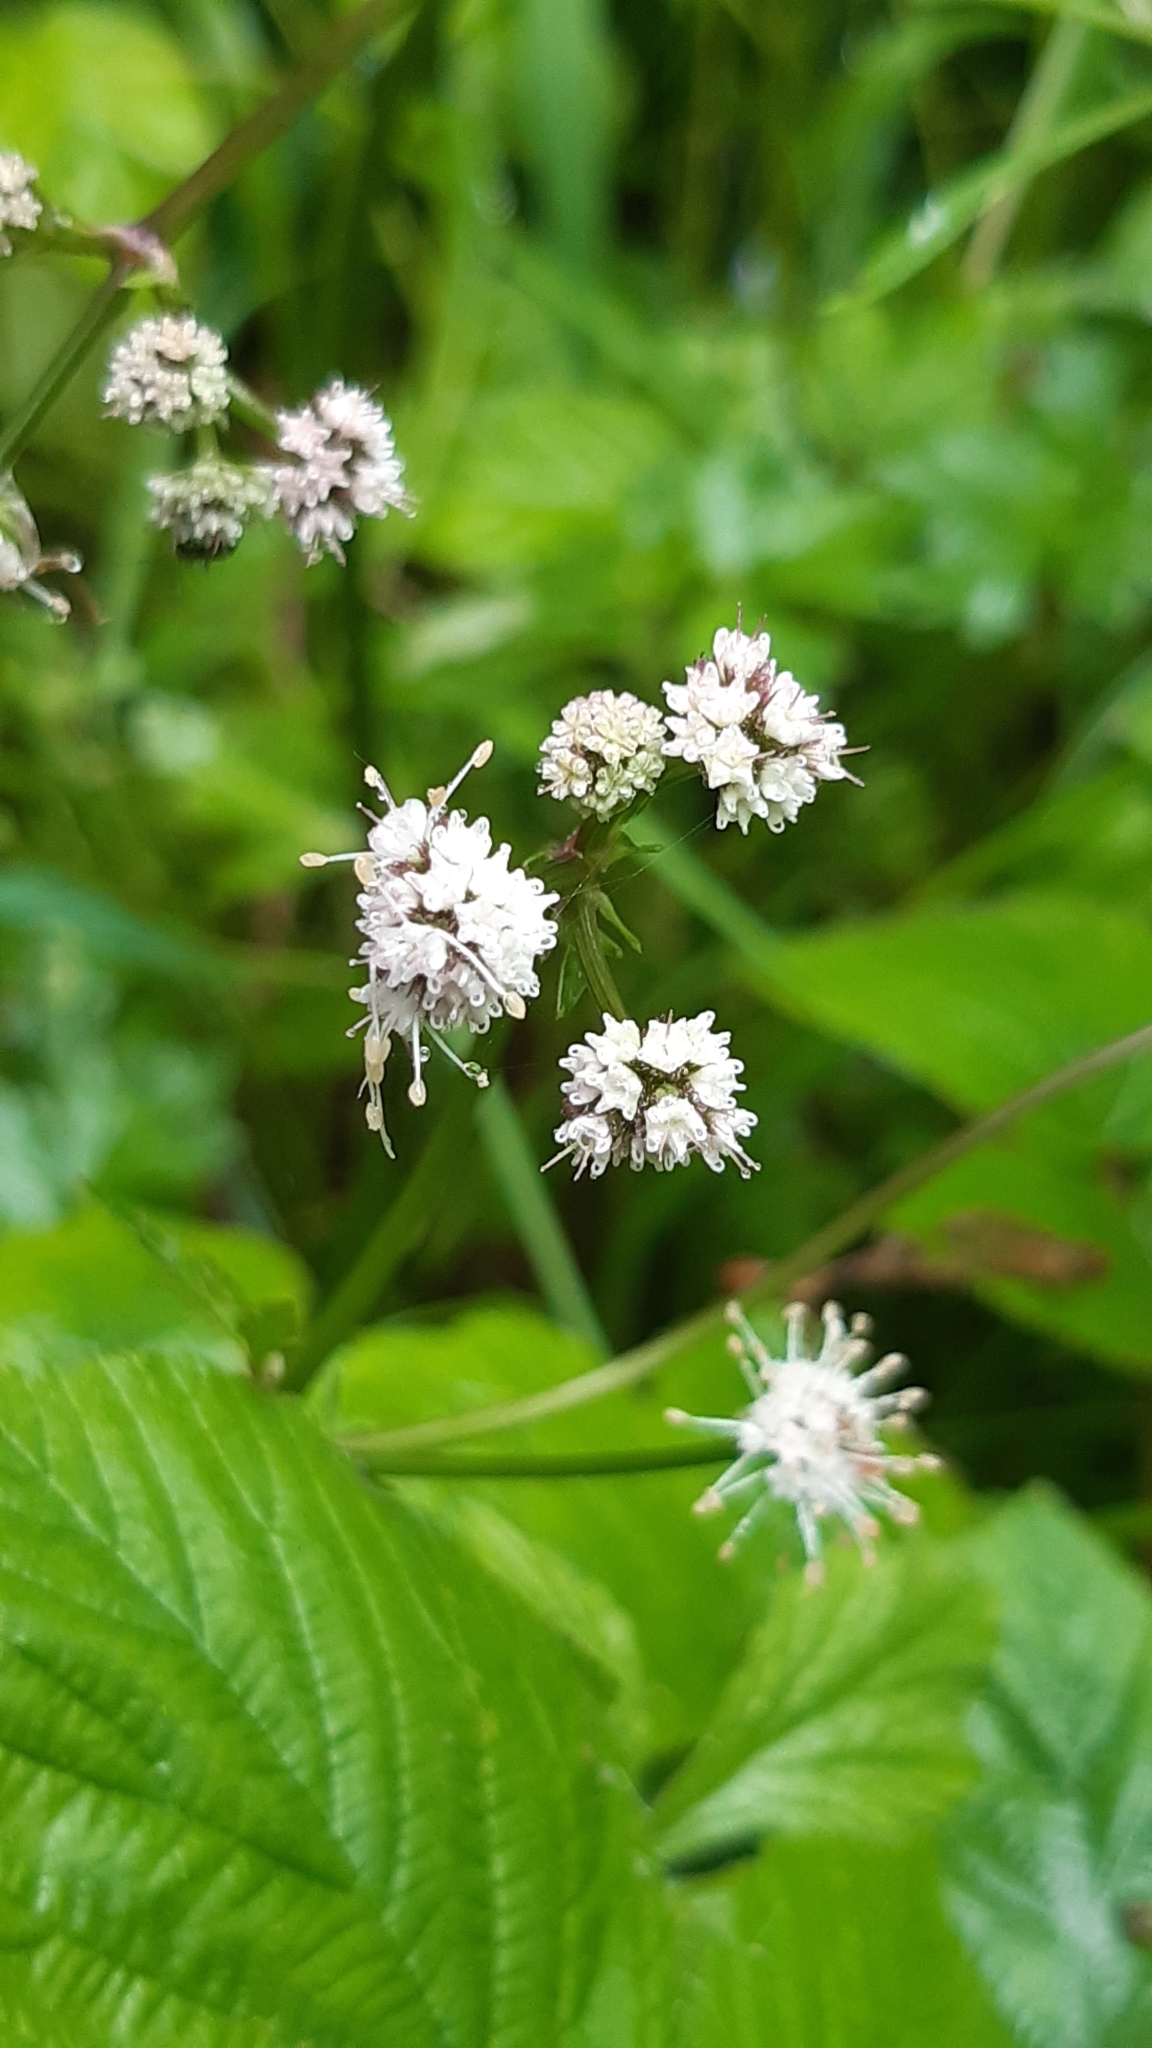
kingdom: Plantae
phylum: Tracheophyta
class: Magnoliopsida
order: Apiales
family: Apiaceae
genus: Sanicula
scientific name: Sanicula europaea
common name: Sanicle
